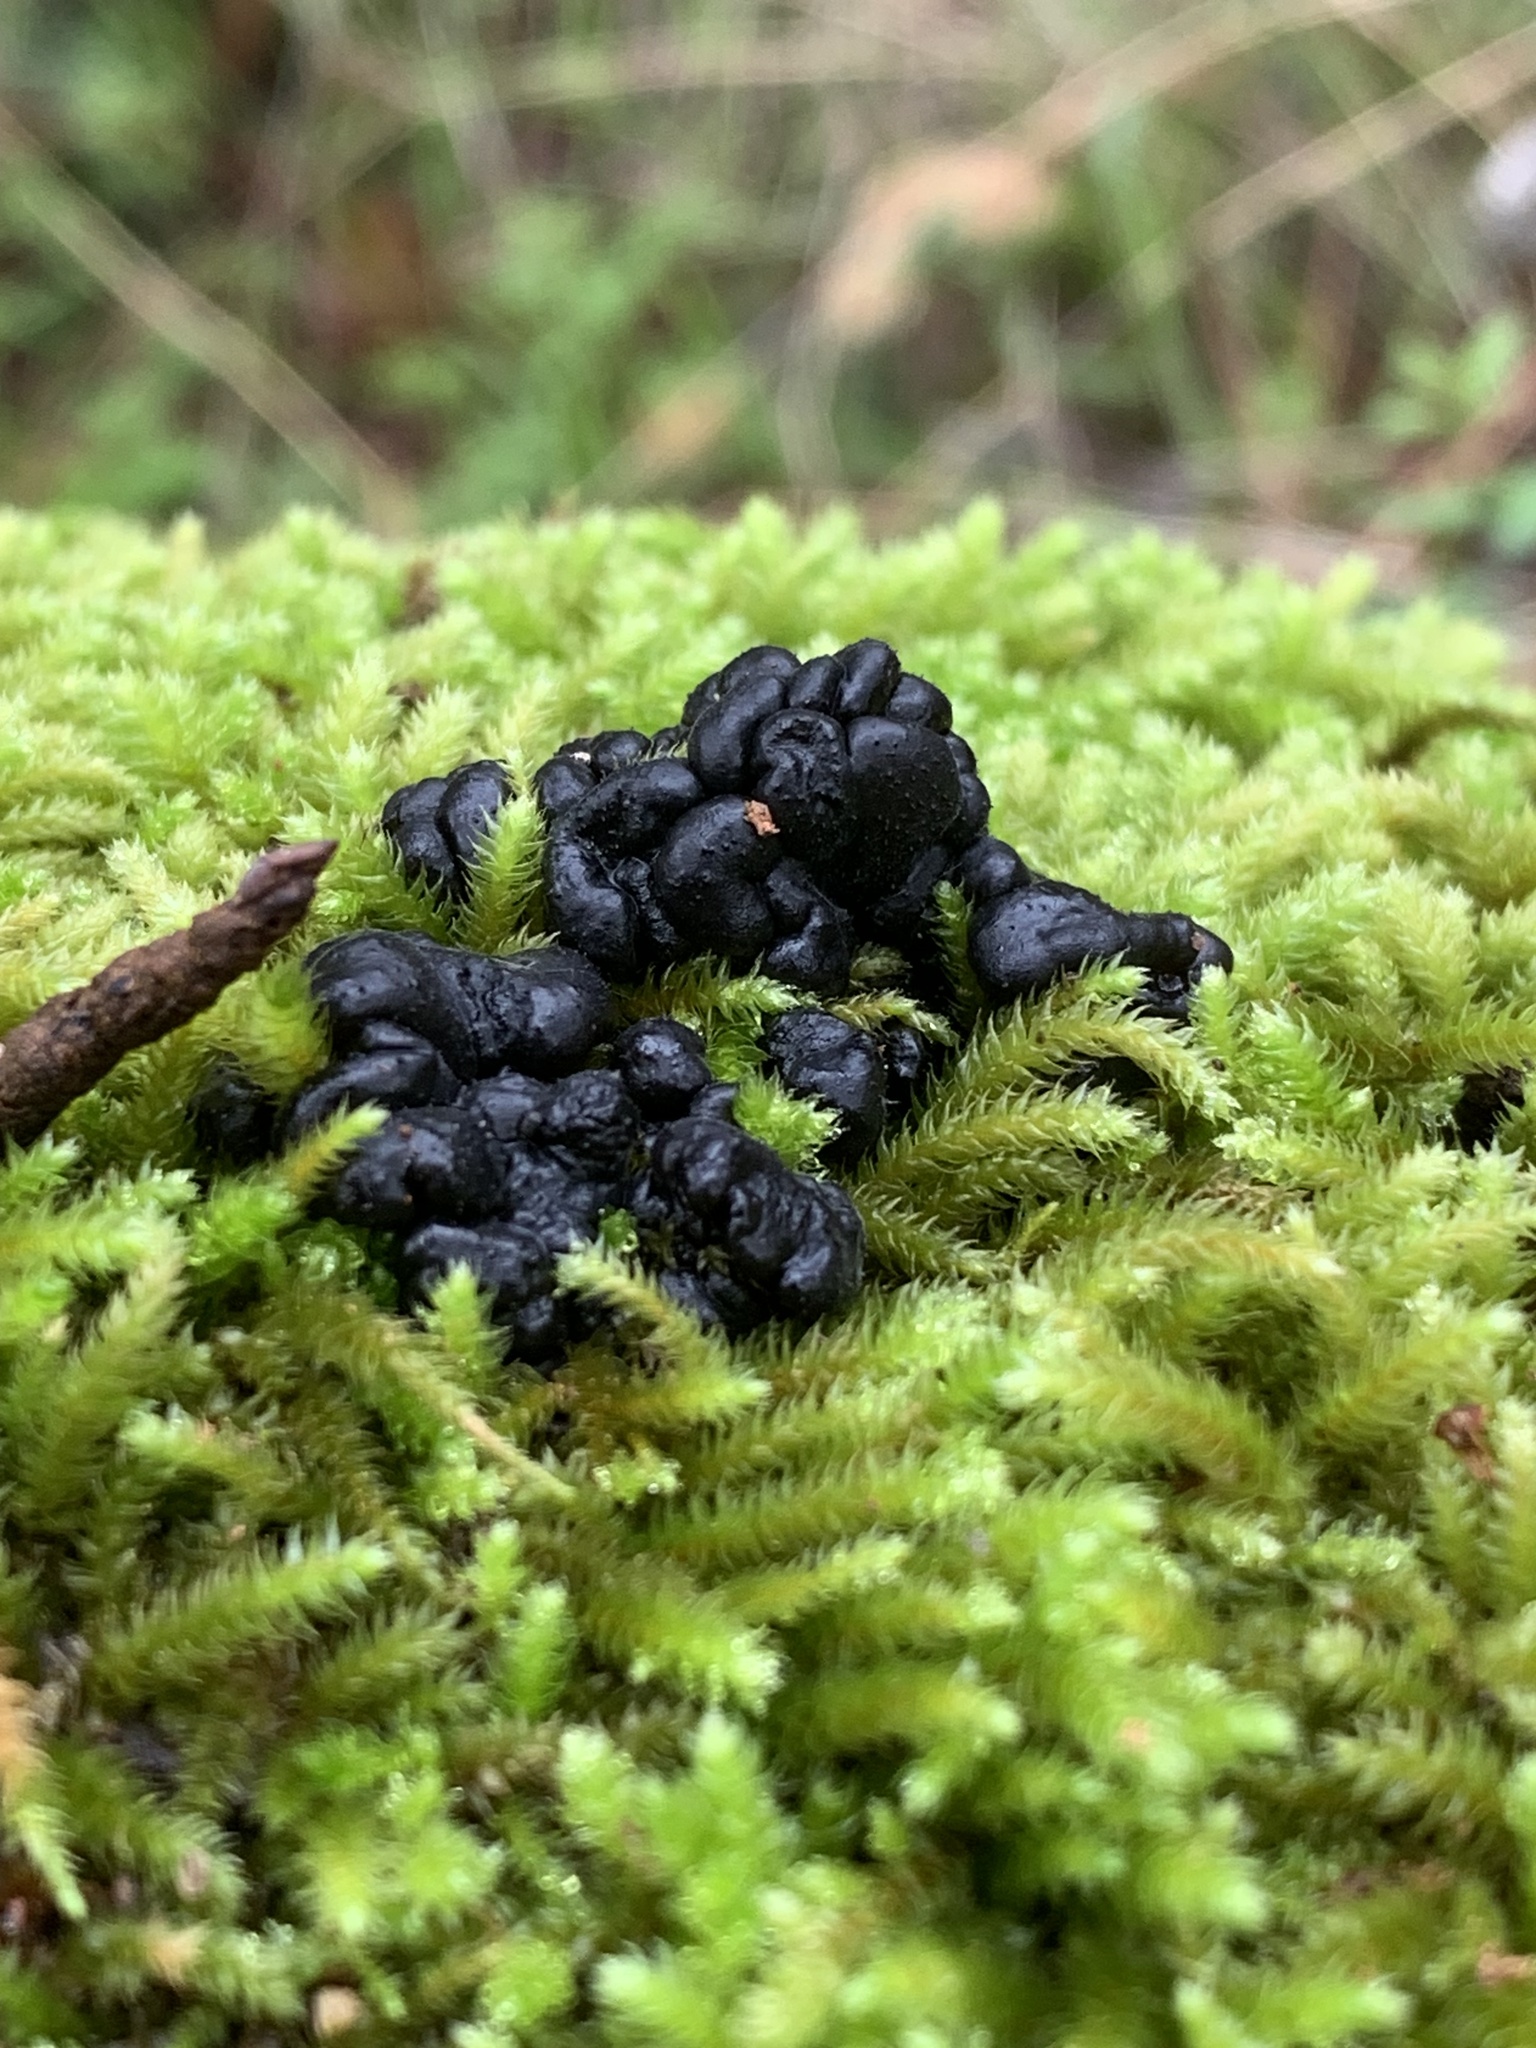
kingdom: Fungi
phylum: Basidiomycota
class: Agaricomycetes
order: Auriculariales
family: Auriculariaceae
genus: Exidia
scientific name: Exidia glandulosa
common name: Witches' butter
